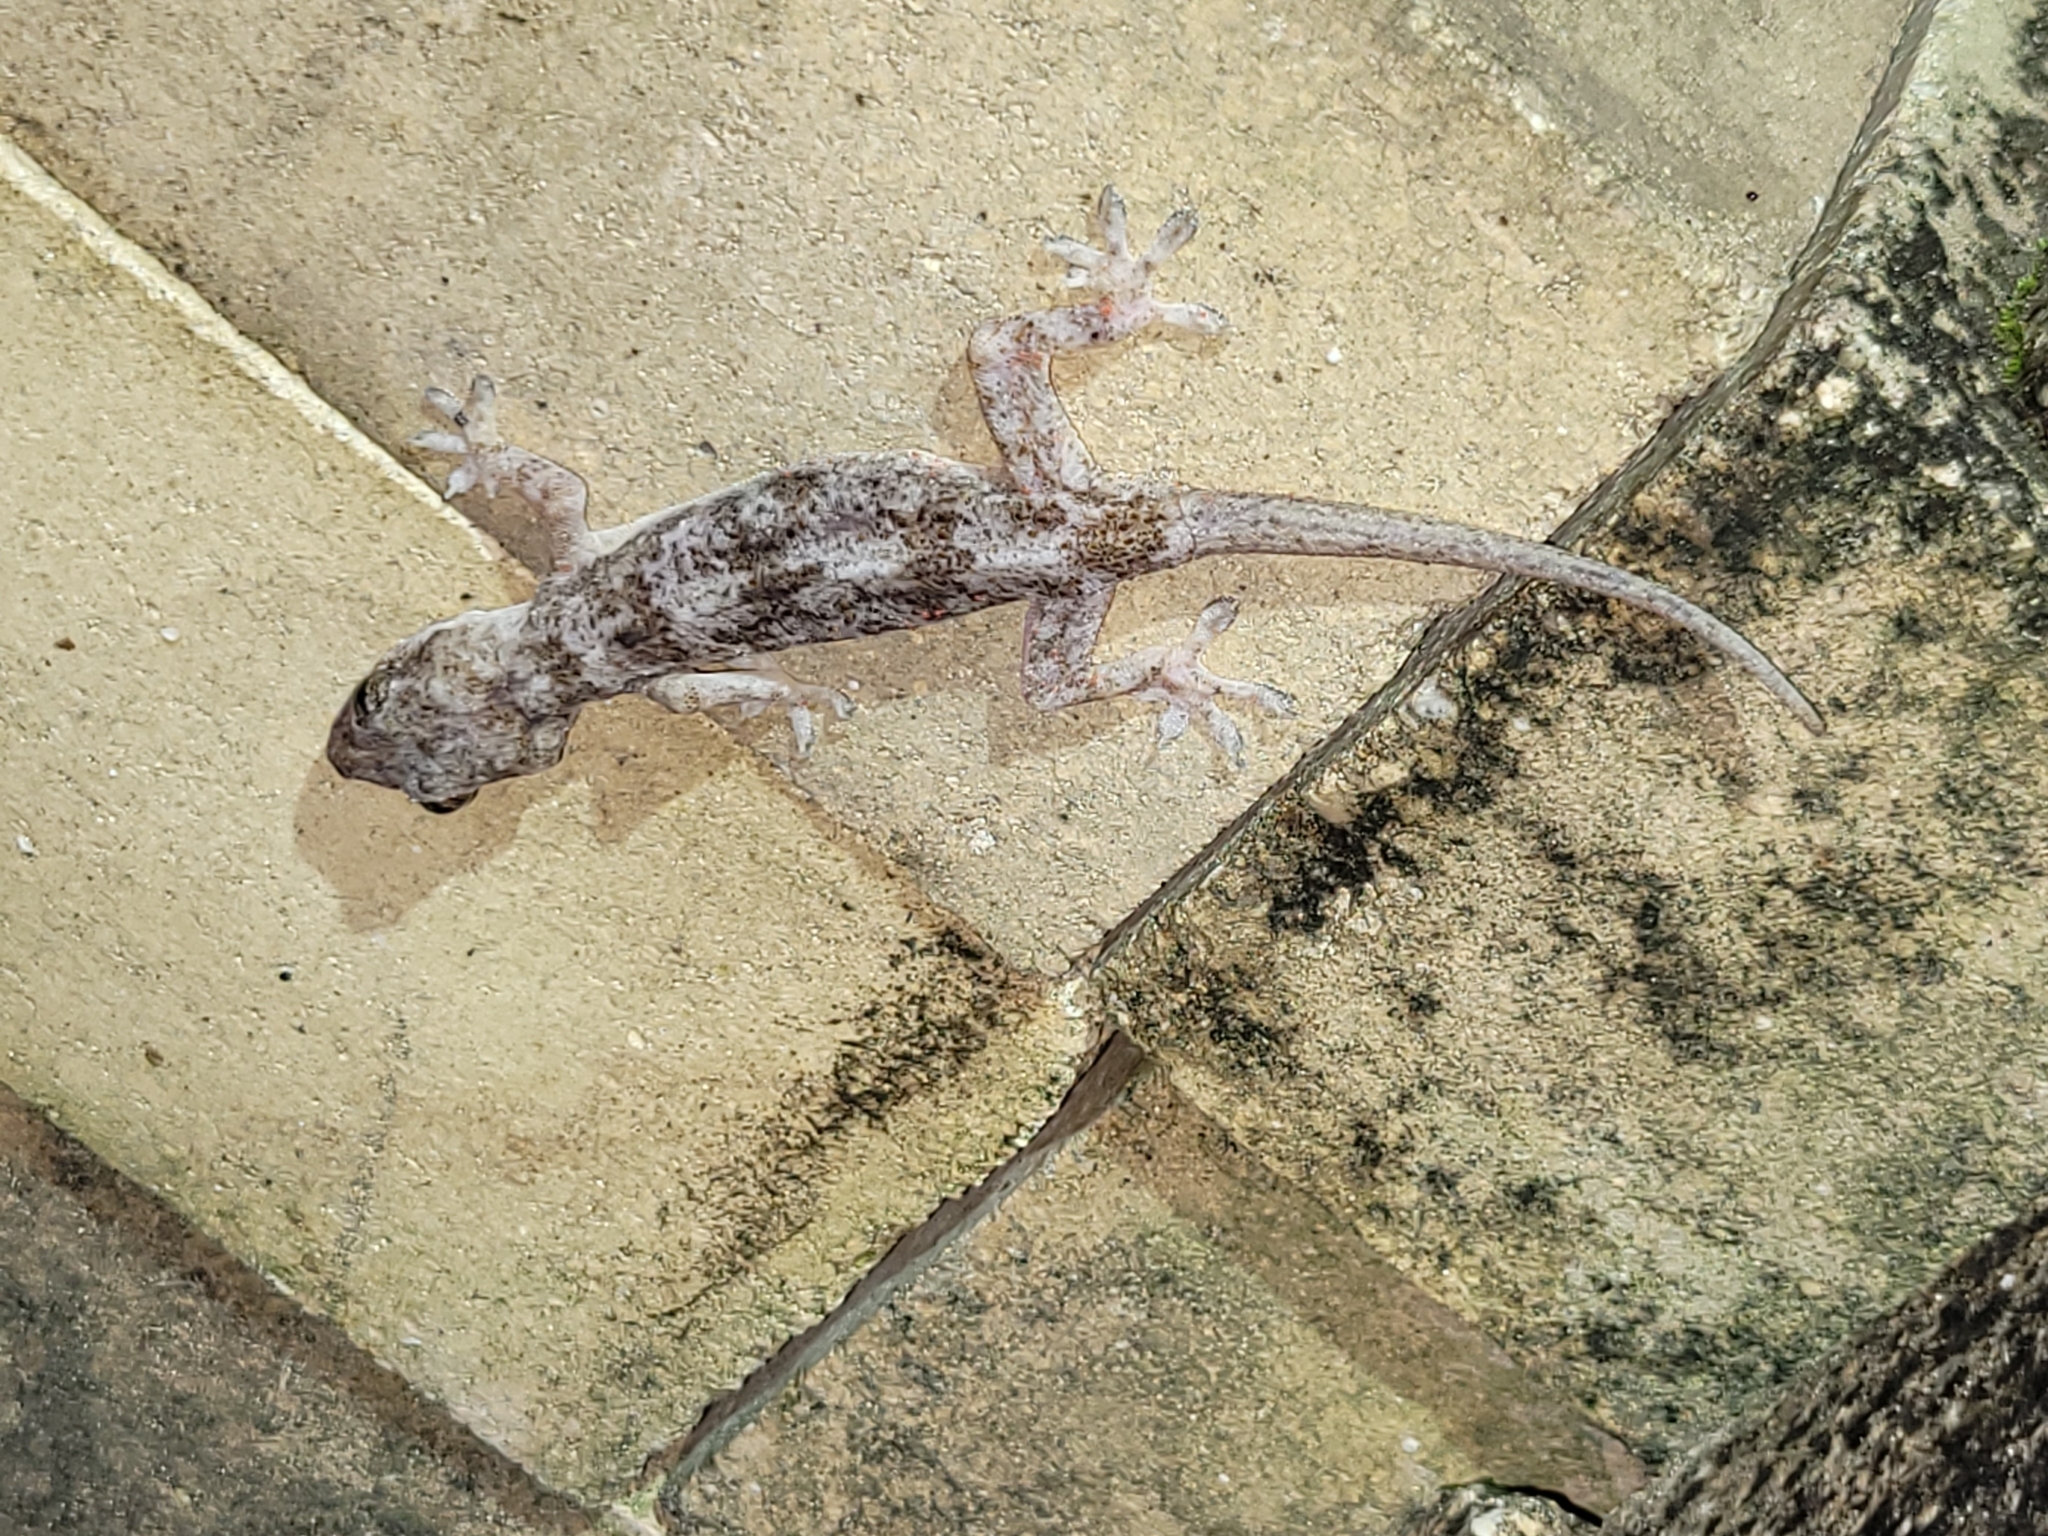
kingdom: Animalia
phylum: Chordata
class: Squamata
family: Gekkonidae
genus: Hemidactylus
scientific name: Hemidactylus mabouia
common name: House gecko
